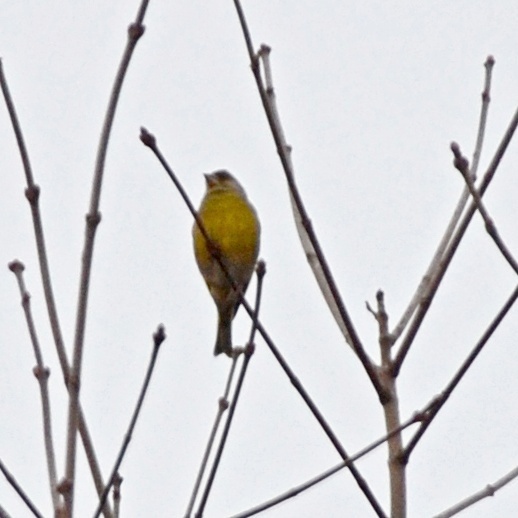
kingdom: Plantae
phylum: Tracheophyta
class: Liliopsida
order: Poales
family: Poaceae
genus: Chloris
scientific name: Chloris chloris
